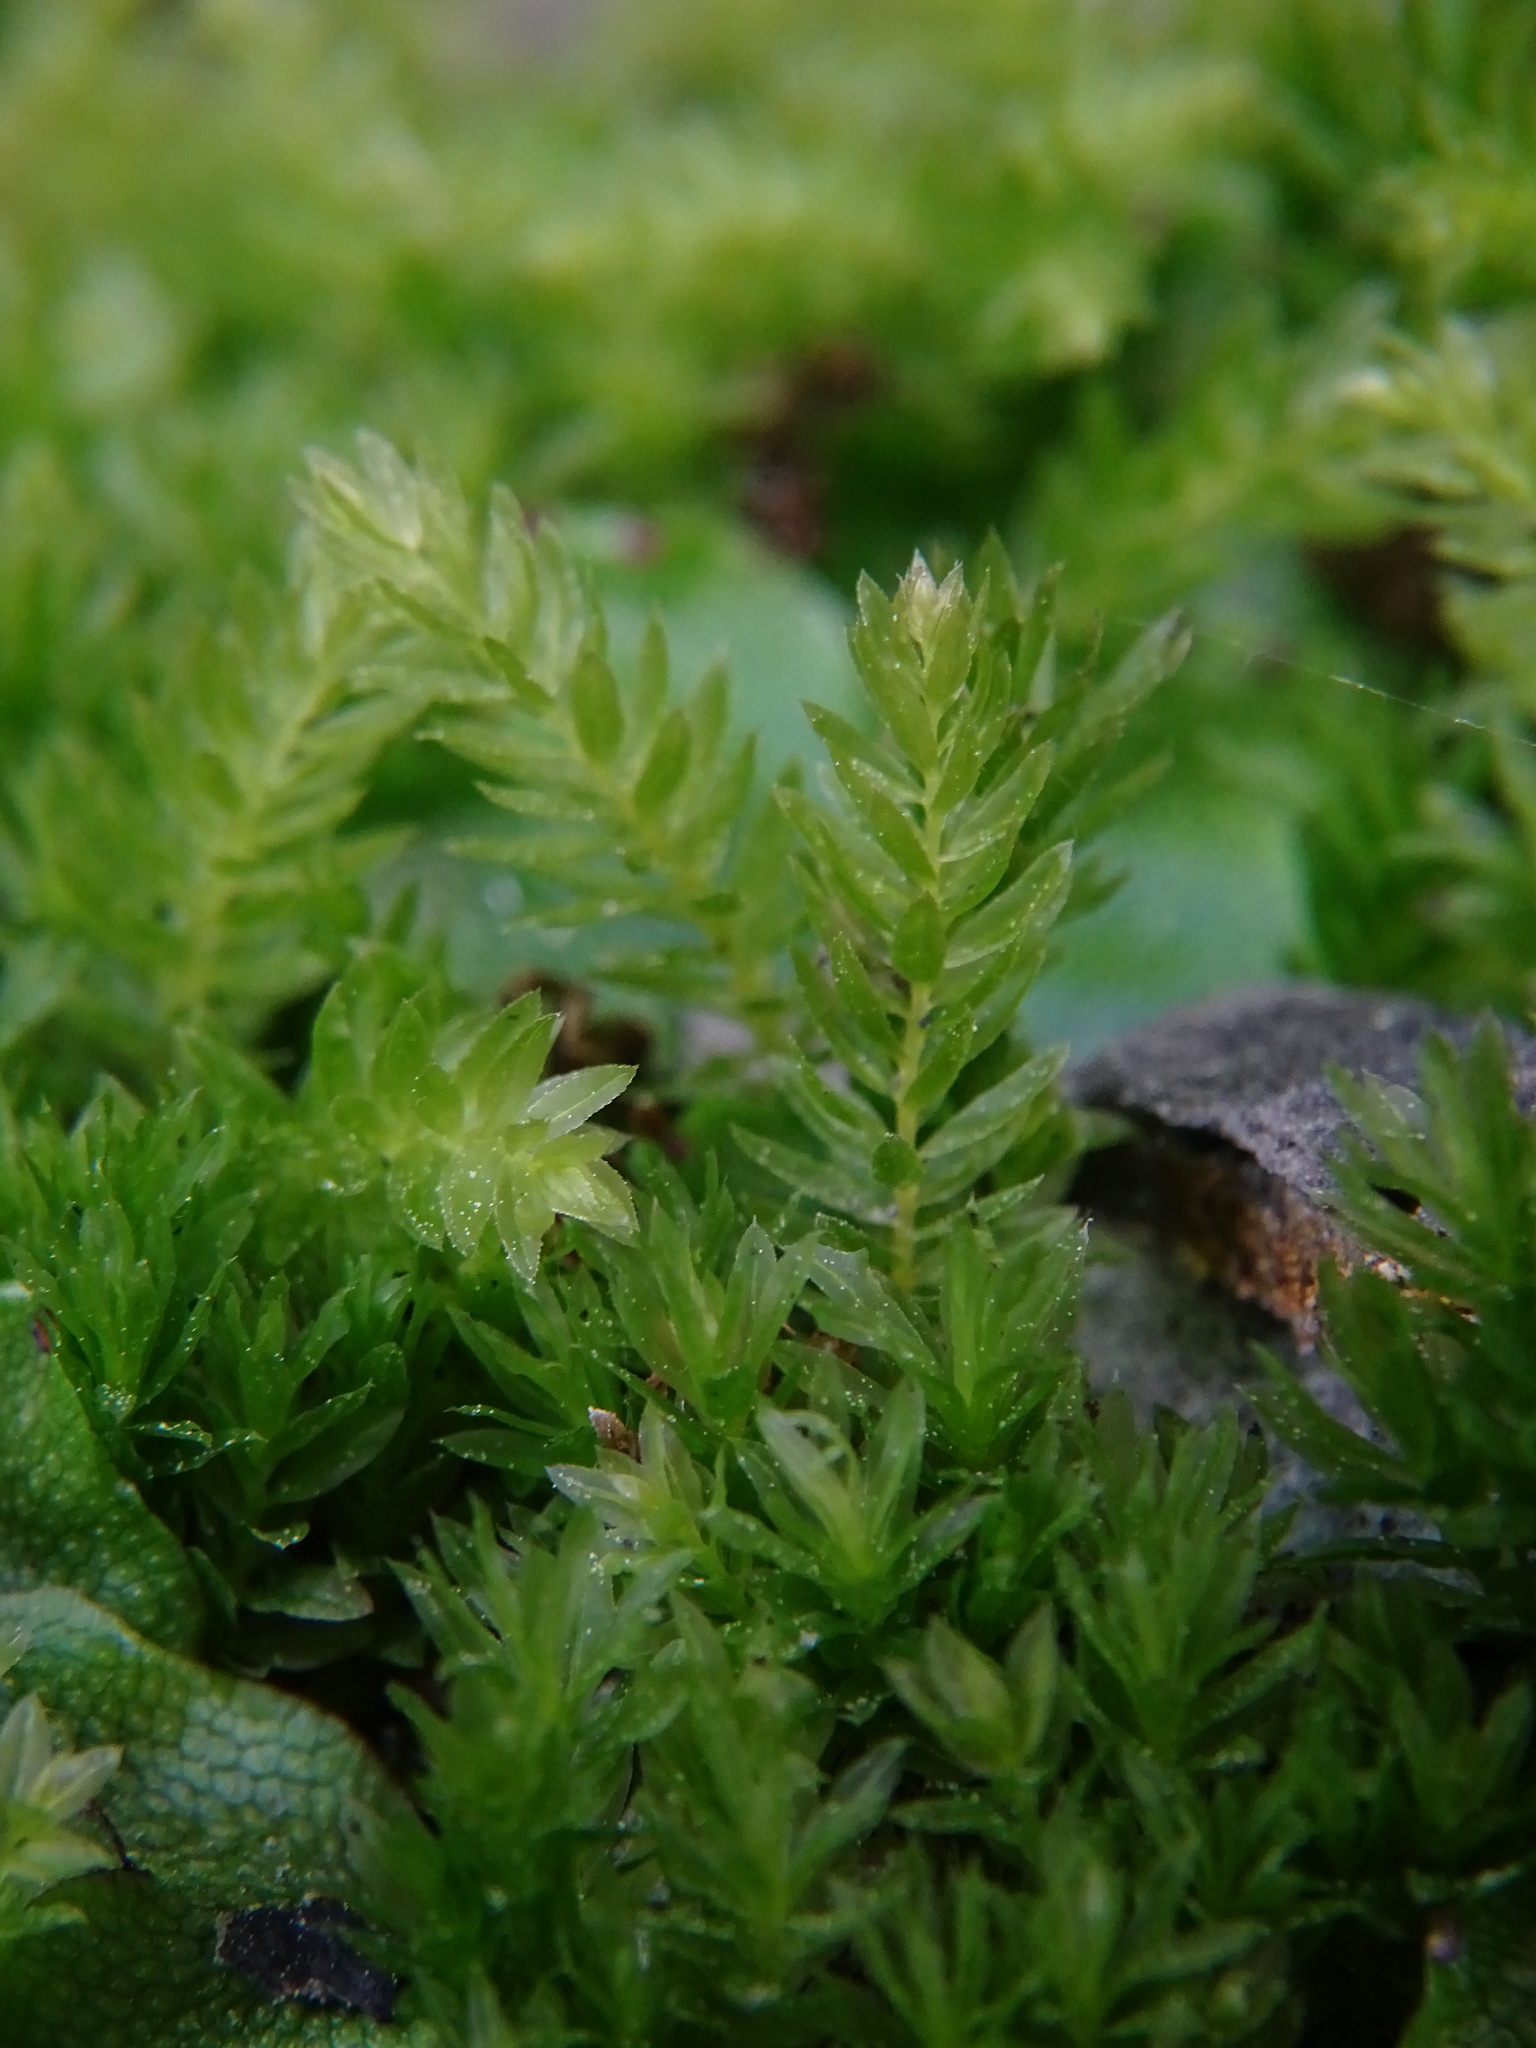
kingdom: Plantae
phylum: Bryophyta
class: Bryopsida
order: Bryales
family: Mniaceae
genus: Mnium
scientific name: Mnium hornum
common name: Swan's-neck leafy moss
